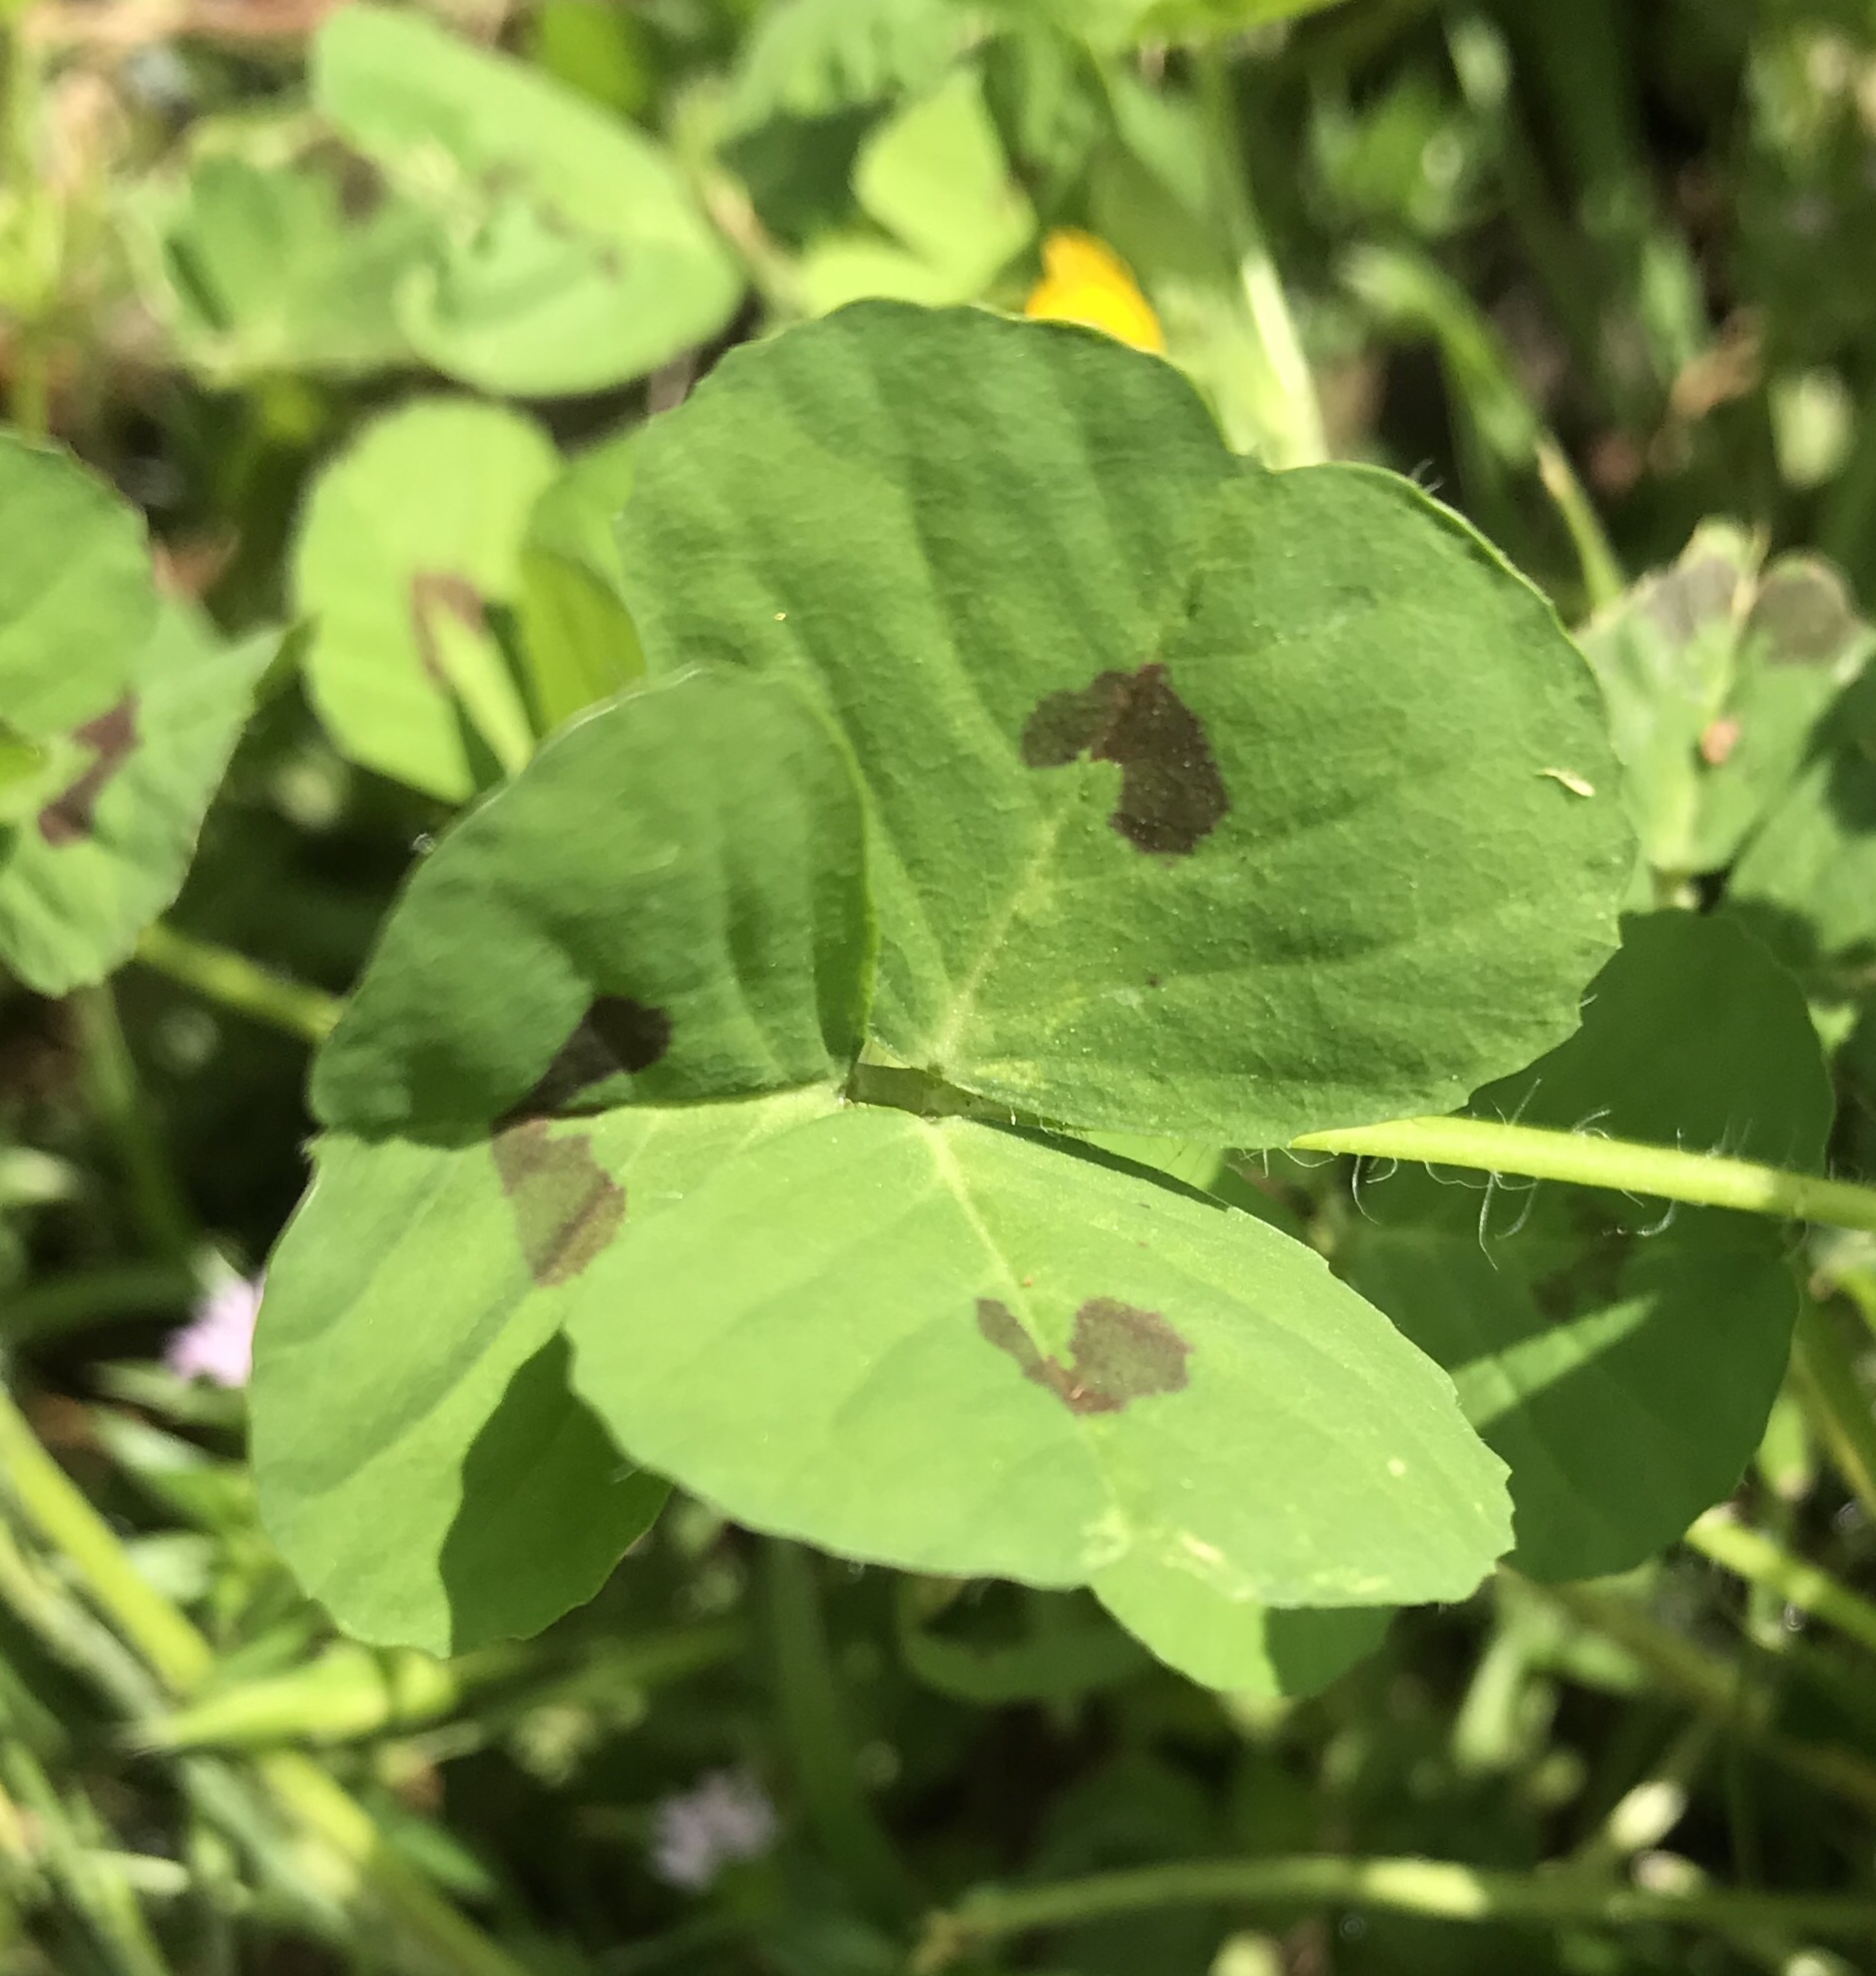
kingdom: Plantae
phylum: Tracheophyta
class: Magnoliopsida
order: Fabales
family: Fabaceae
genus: Medicago
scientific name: Medicago arabica
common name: Spotted medick
